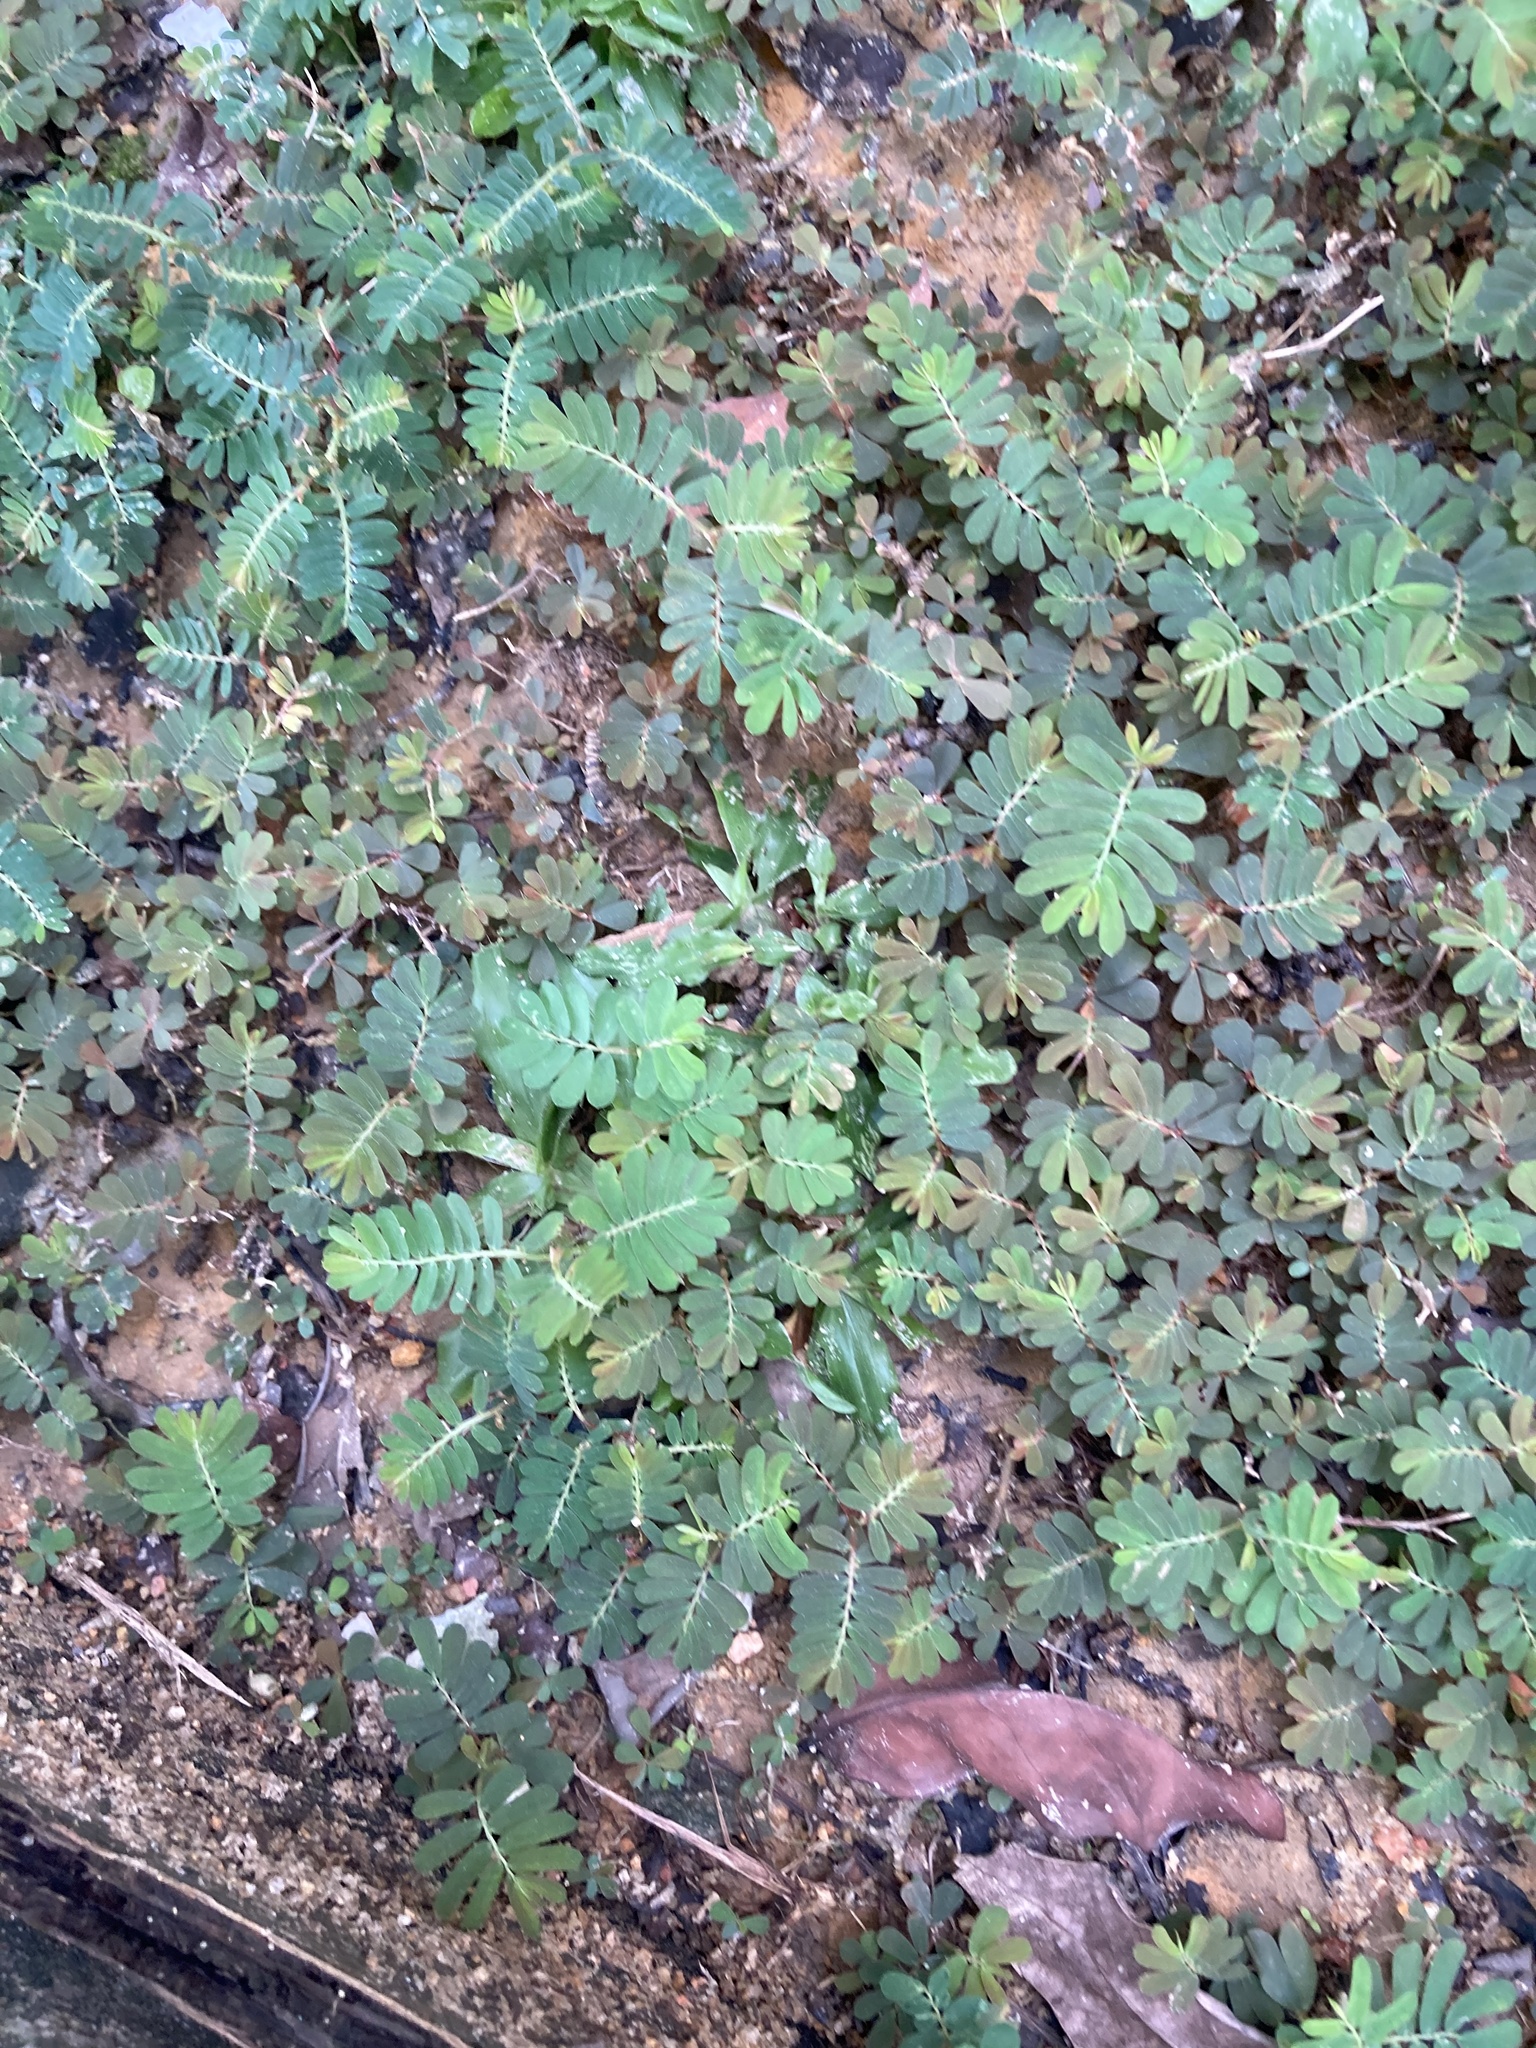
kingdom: Plantae
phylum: Tracheophyta
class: Magnoliopsida
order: Malpighiales
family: Phyllanthaceae
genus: Phyllanthus
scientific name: Phyllanthus urinaria
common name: Chamber bitter
